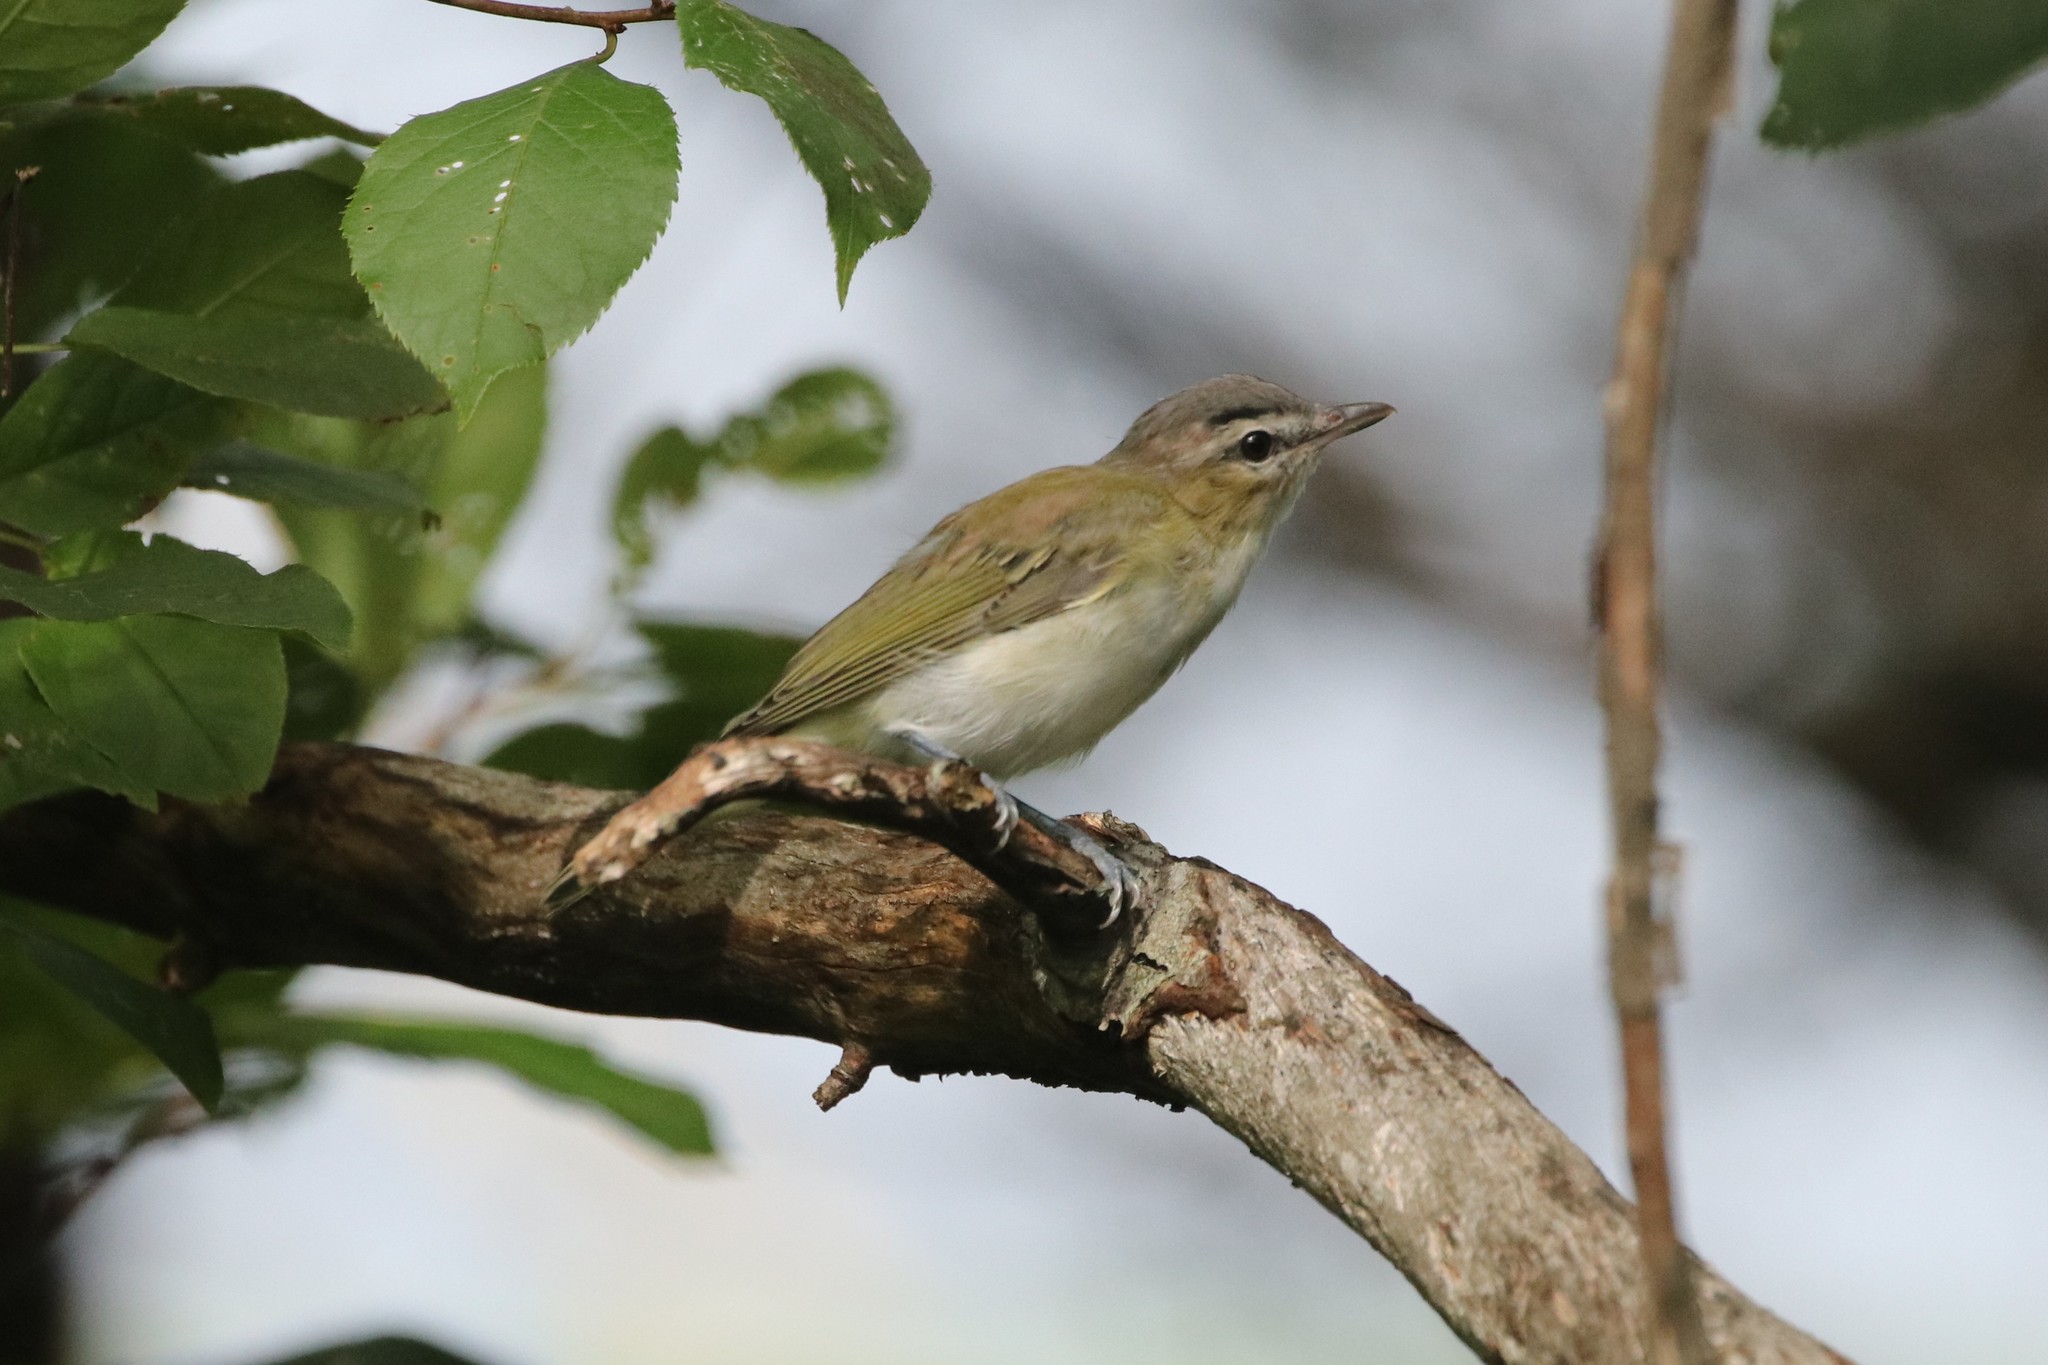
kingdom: Animalia
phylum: Chordata
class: Aves
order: Passeriformes
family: Vireonidae
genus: Vireo
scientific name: Vireo olivaceus
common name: Red-eyed vireo
